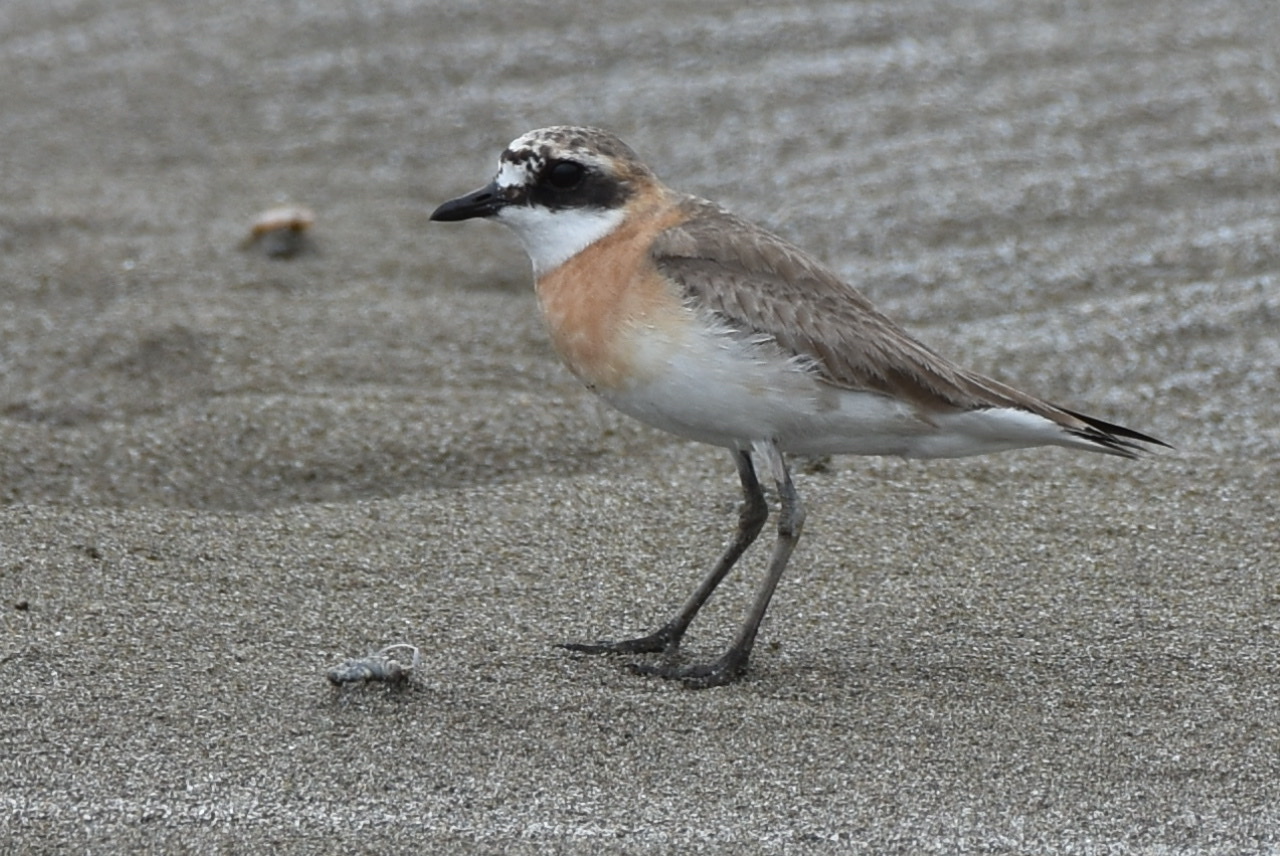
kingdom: Animalia
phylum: Chordata
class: Aves
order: Charadriiformes
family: Charadriidae
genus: Anarhynchus
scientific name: Anarhynchus
